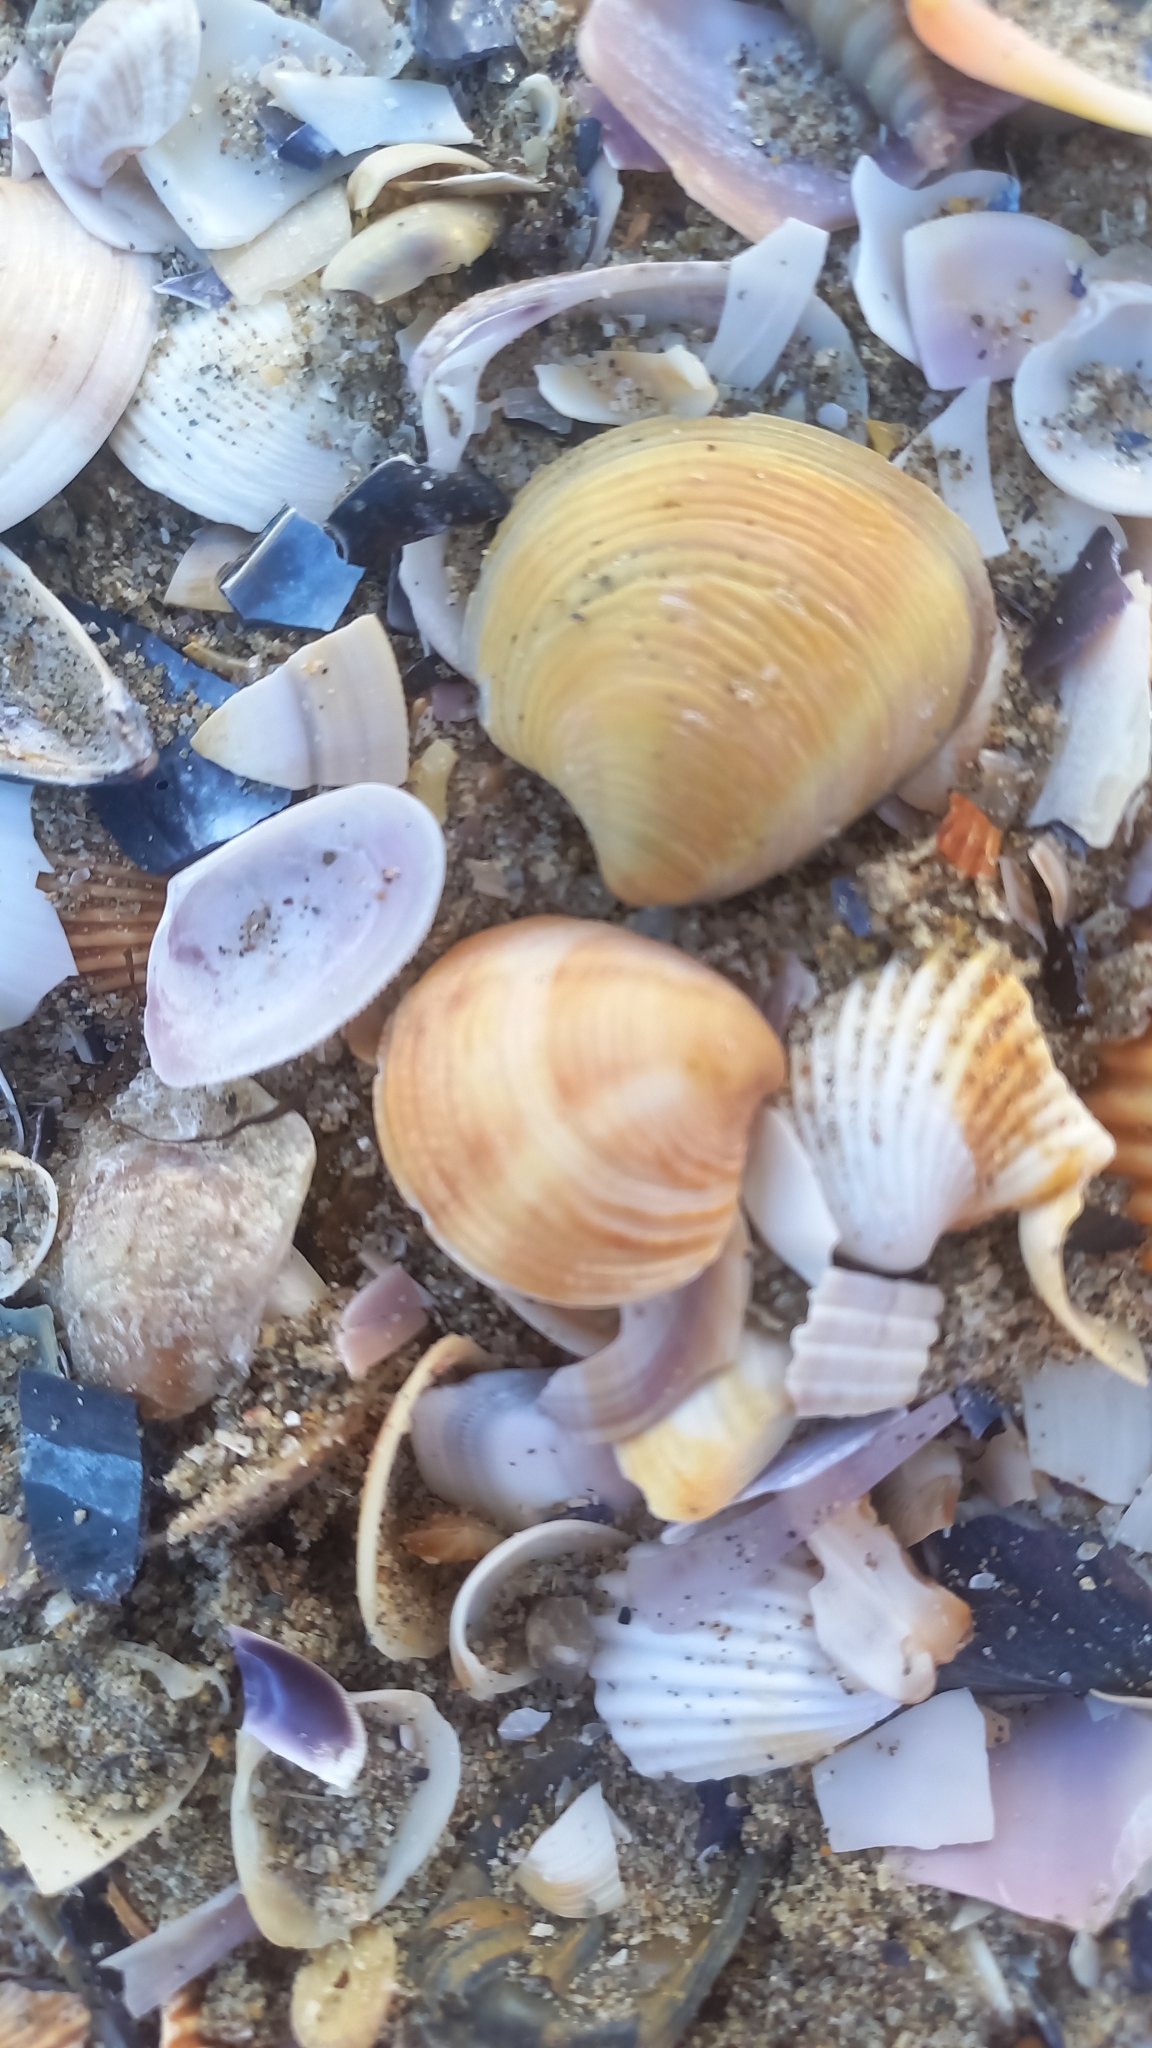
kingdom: Animalia
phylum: Mollusca
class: Bivalvia
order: Venerida
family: Veneridae
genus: Chamelea
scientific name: Chamelea gallina
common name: Chicken venus
